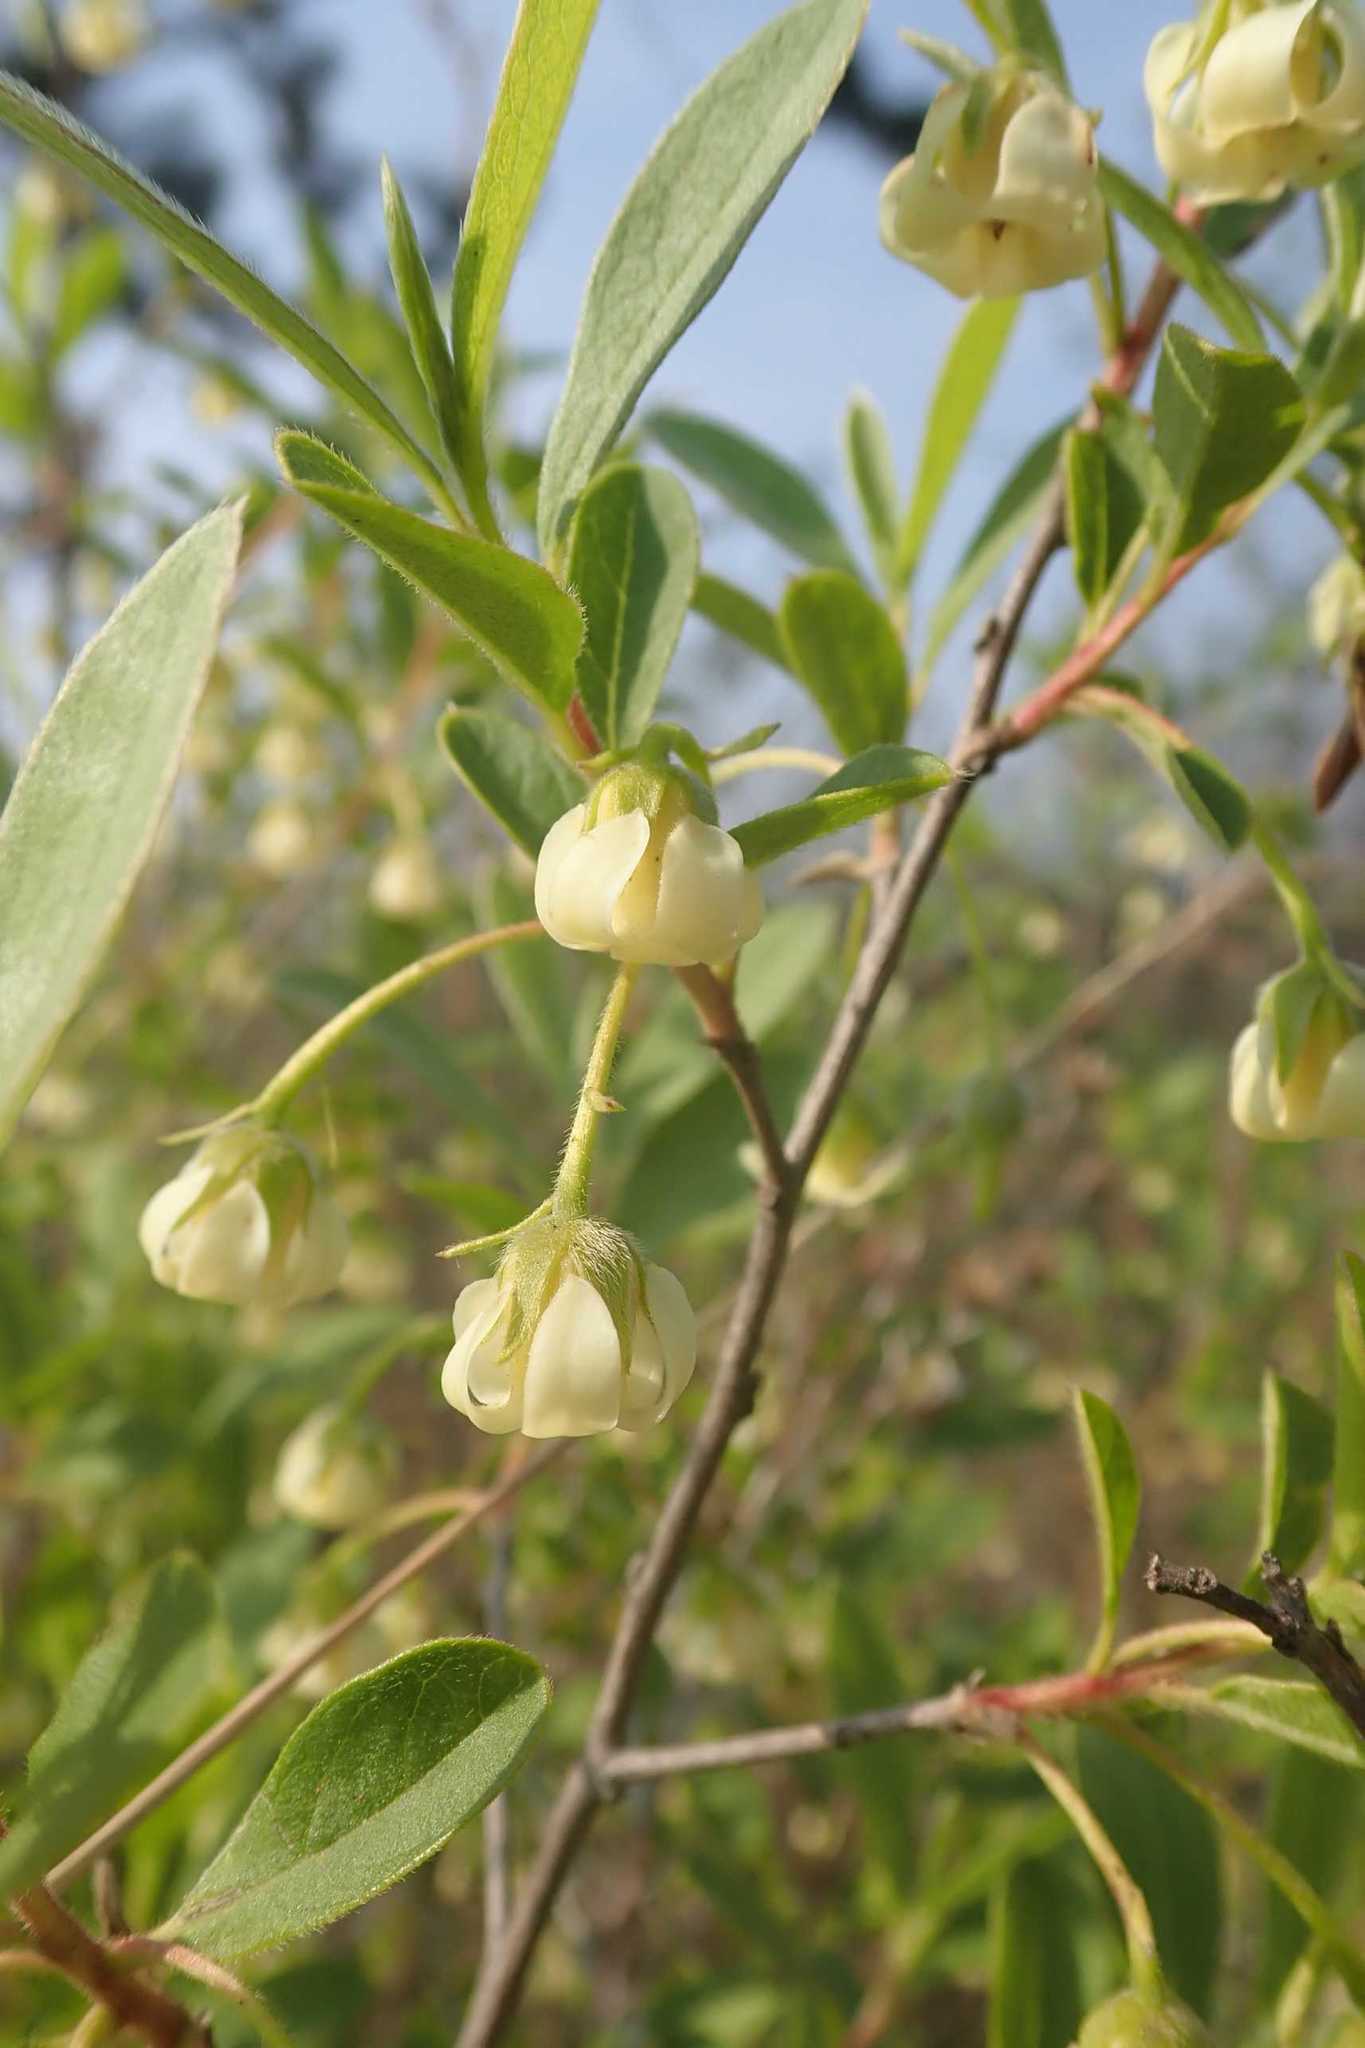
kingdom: Plantae
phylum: Tracheophyta
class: Magnoliopsida
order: Ericales
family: Ebenaceae
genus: Diospyros
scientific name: Diospyros lycioides
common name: Red star apple
